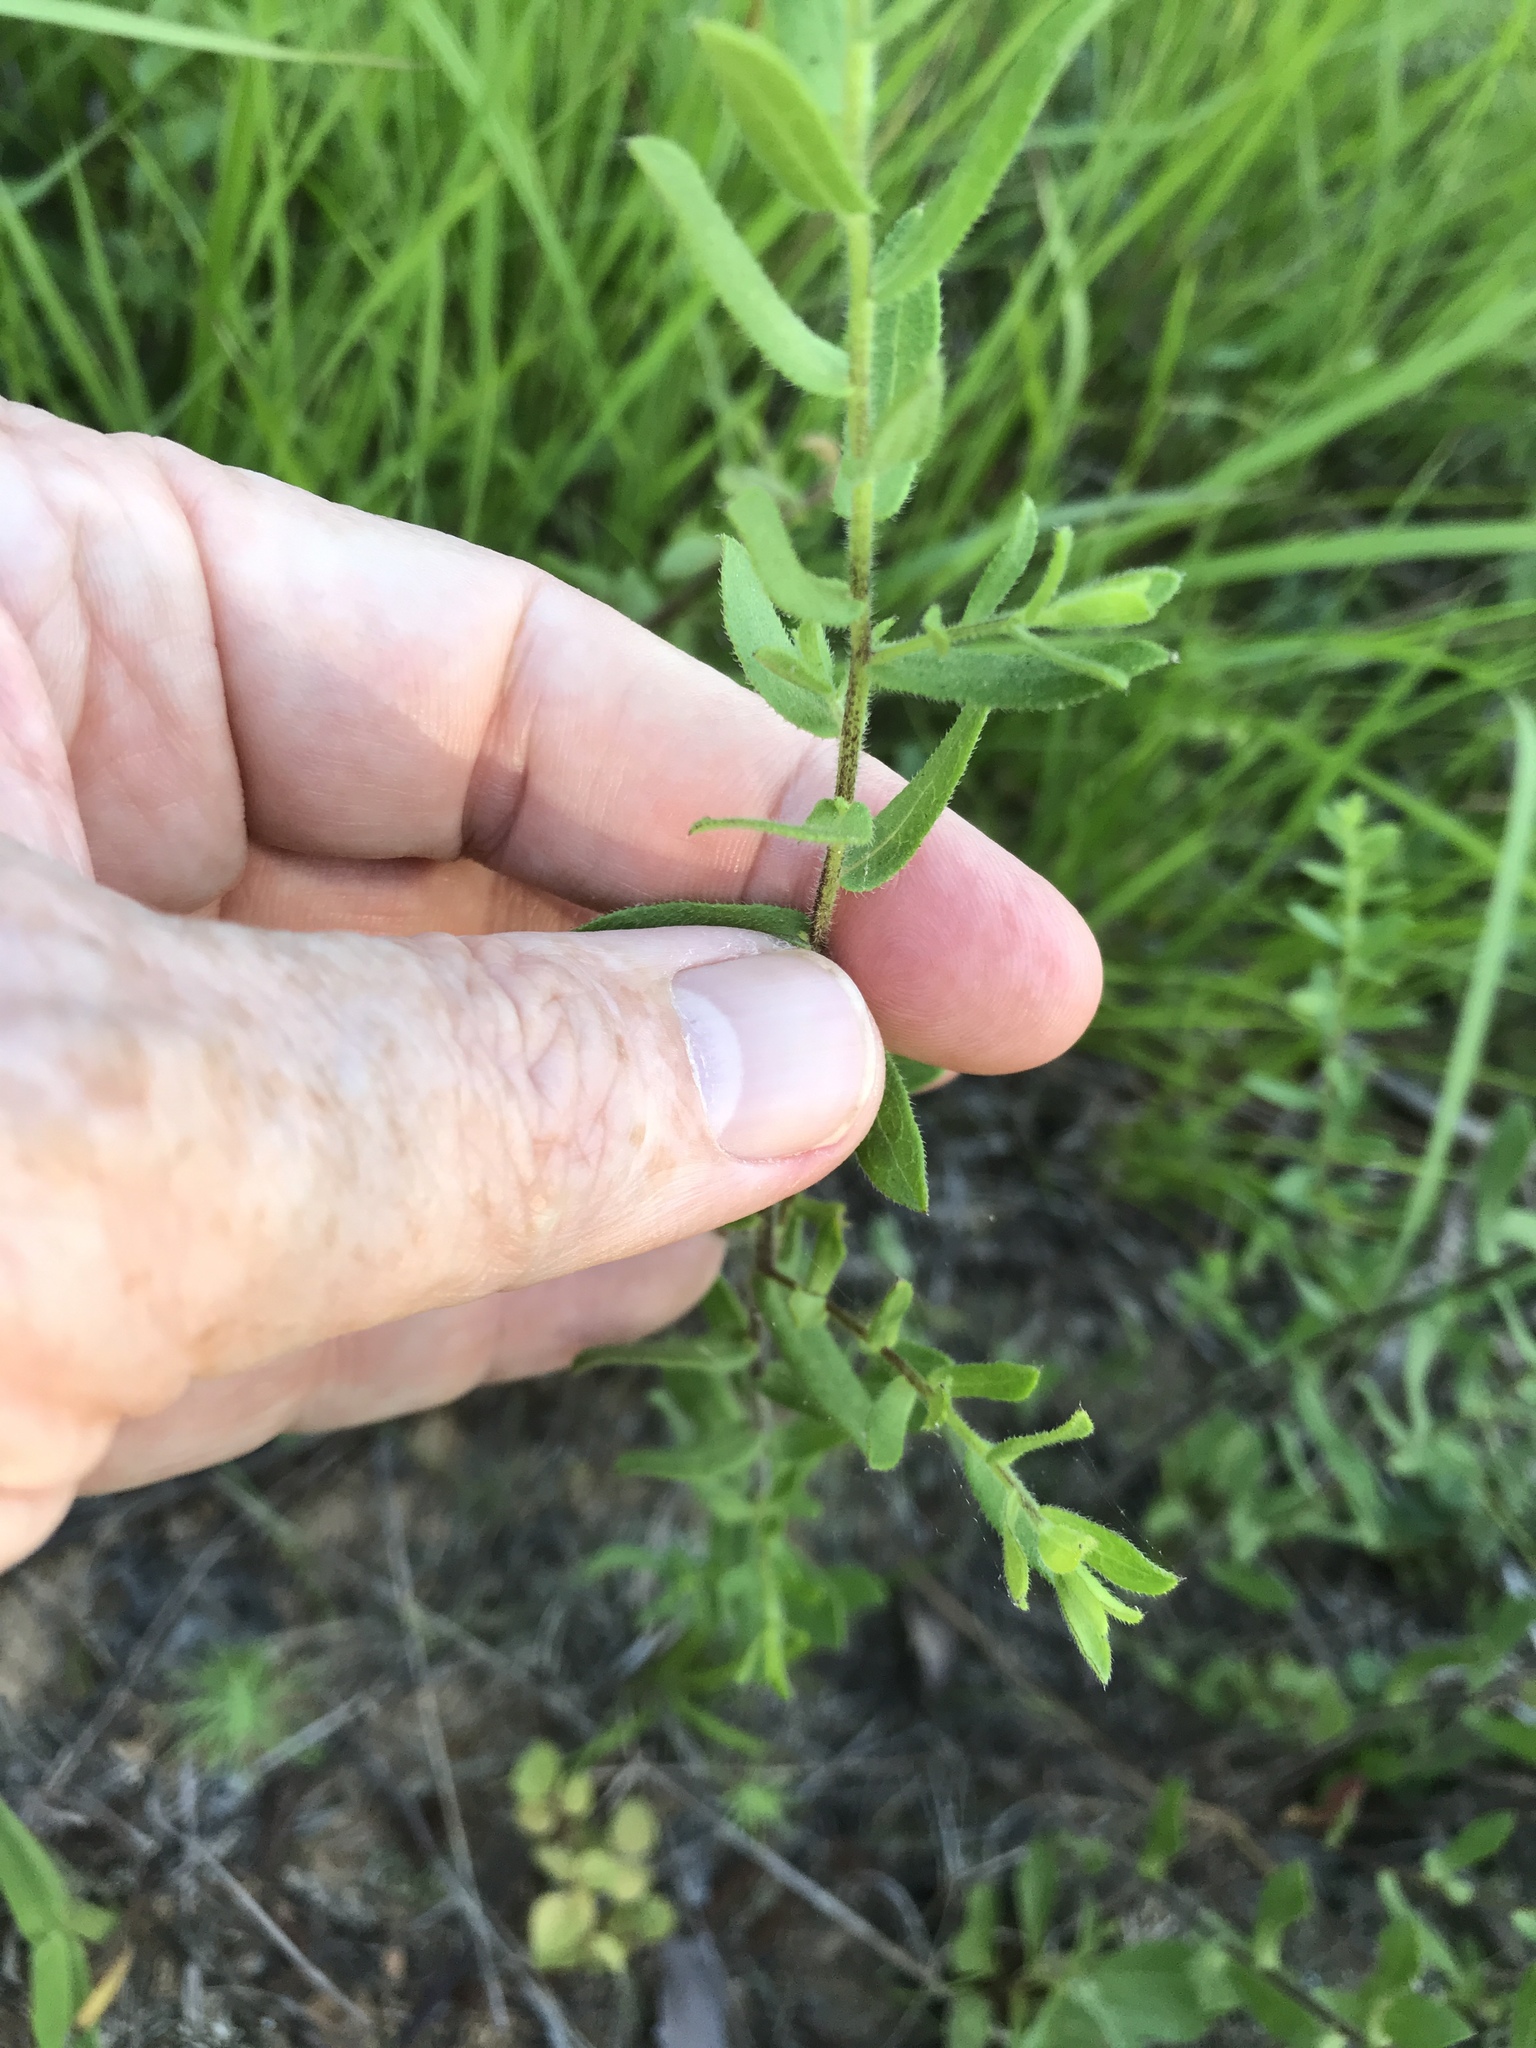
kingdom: Plantae
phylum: Tracheophyta
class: Magnoliopsida
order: Asterales
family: Asteraceae
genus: Symphyotrichum
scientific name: Symphyotrichum grandiflorum
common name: Big-head aster
